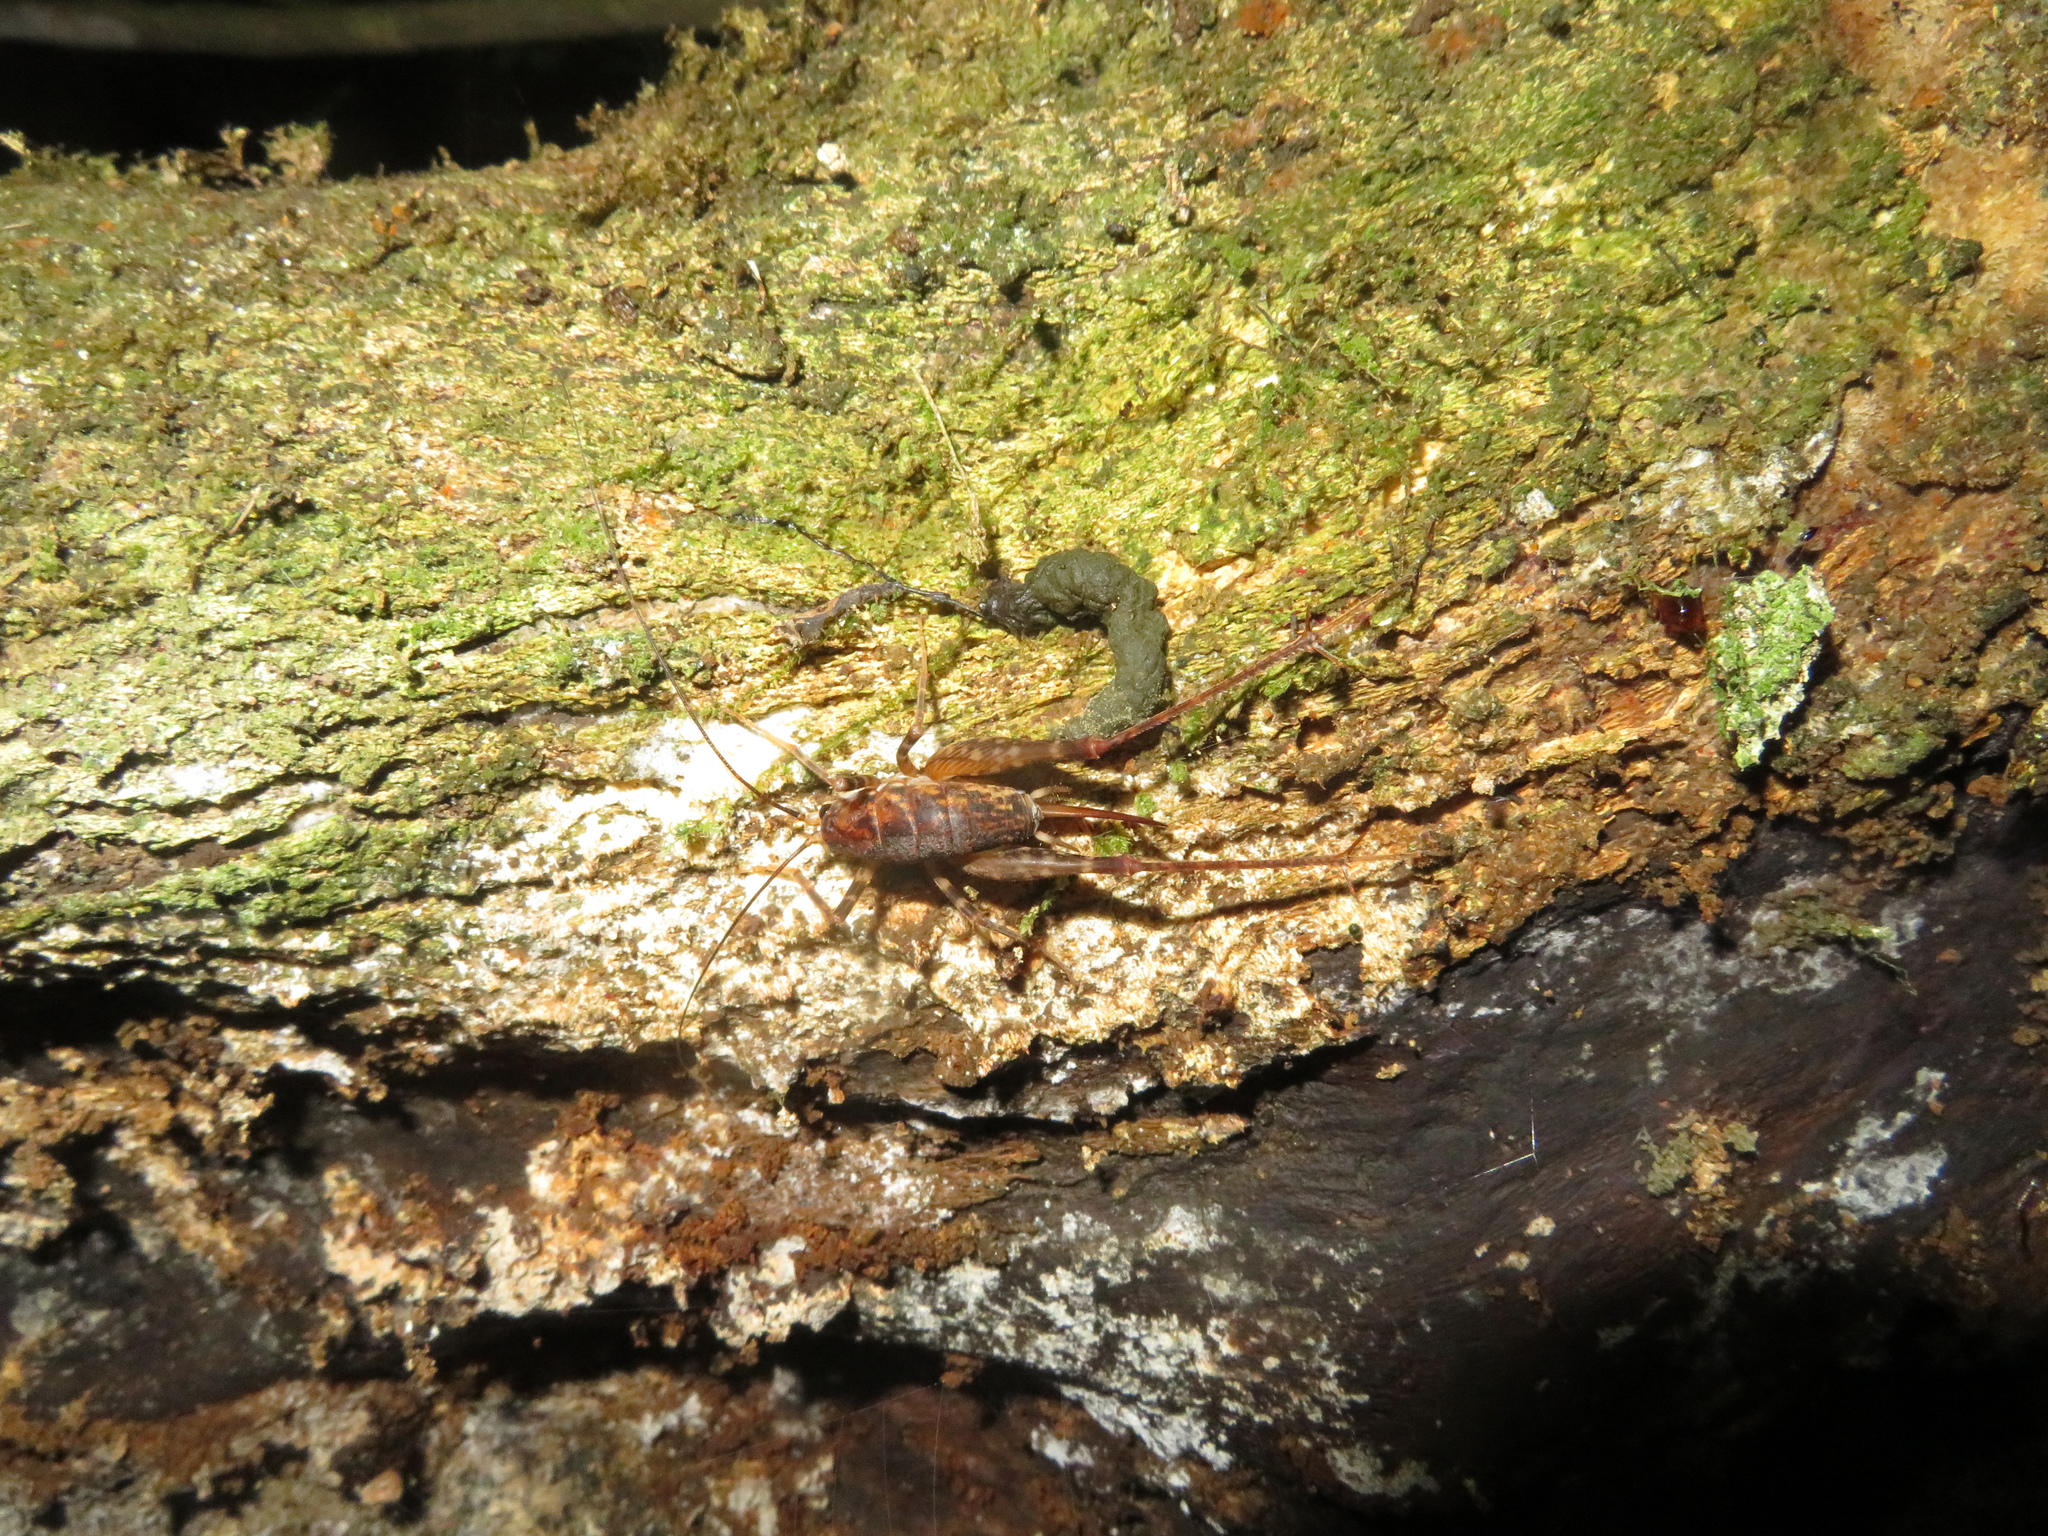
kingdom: Animalia
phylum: Arthropoda
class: Insecta
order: Orthoptera
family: Rhaphidophoridae
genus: Miotopus
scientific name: Miotopus diversus
